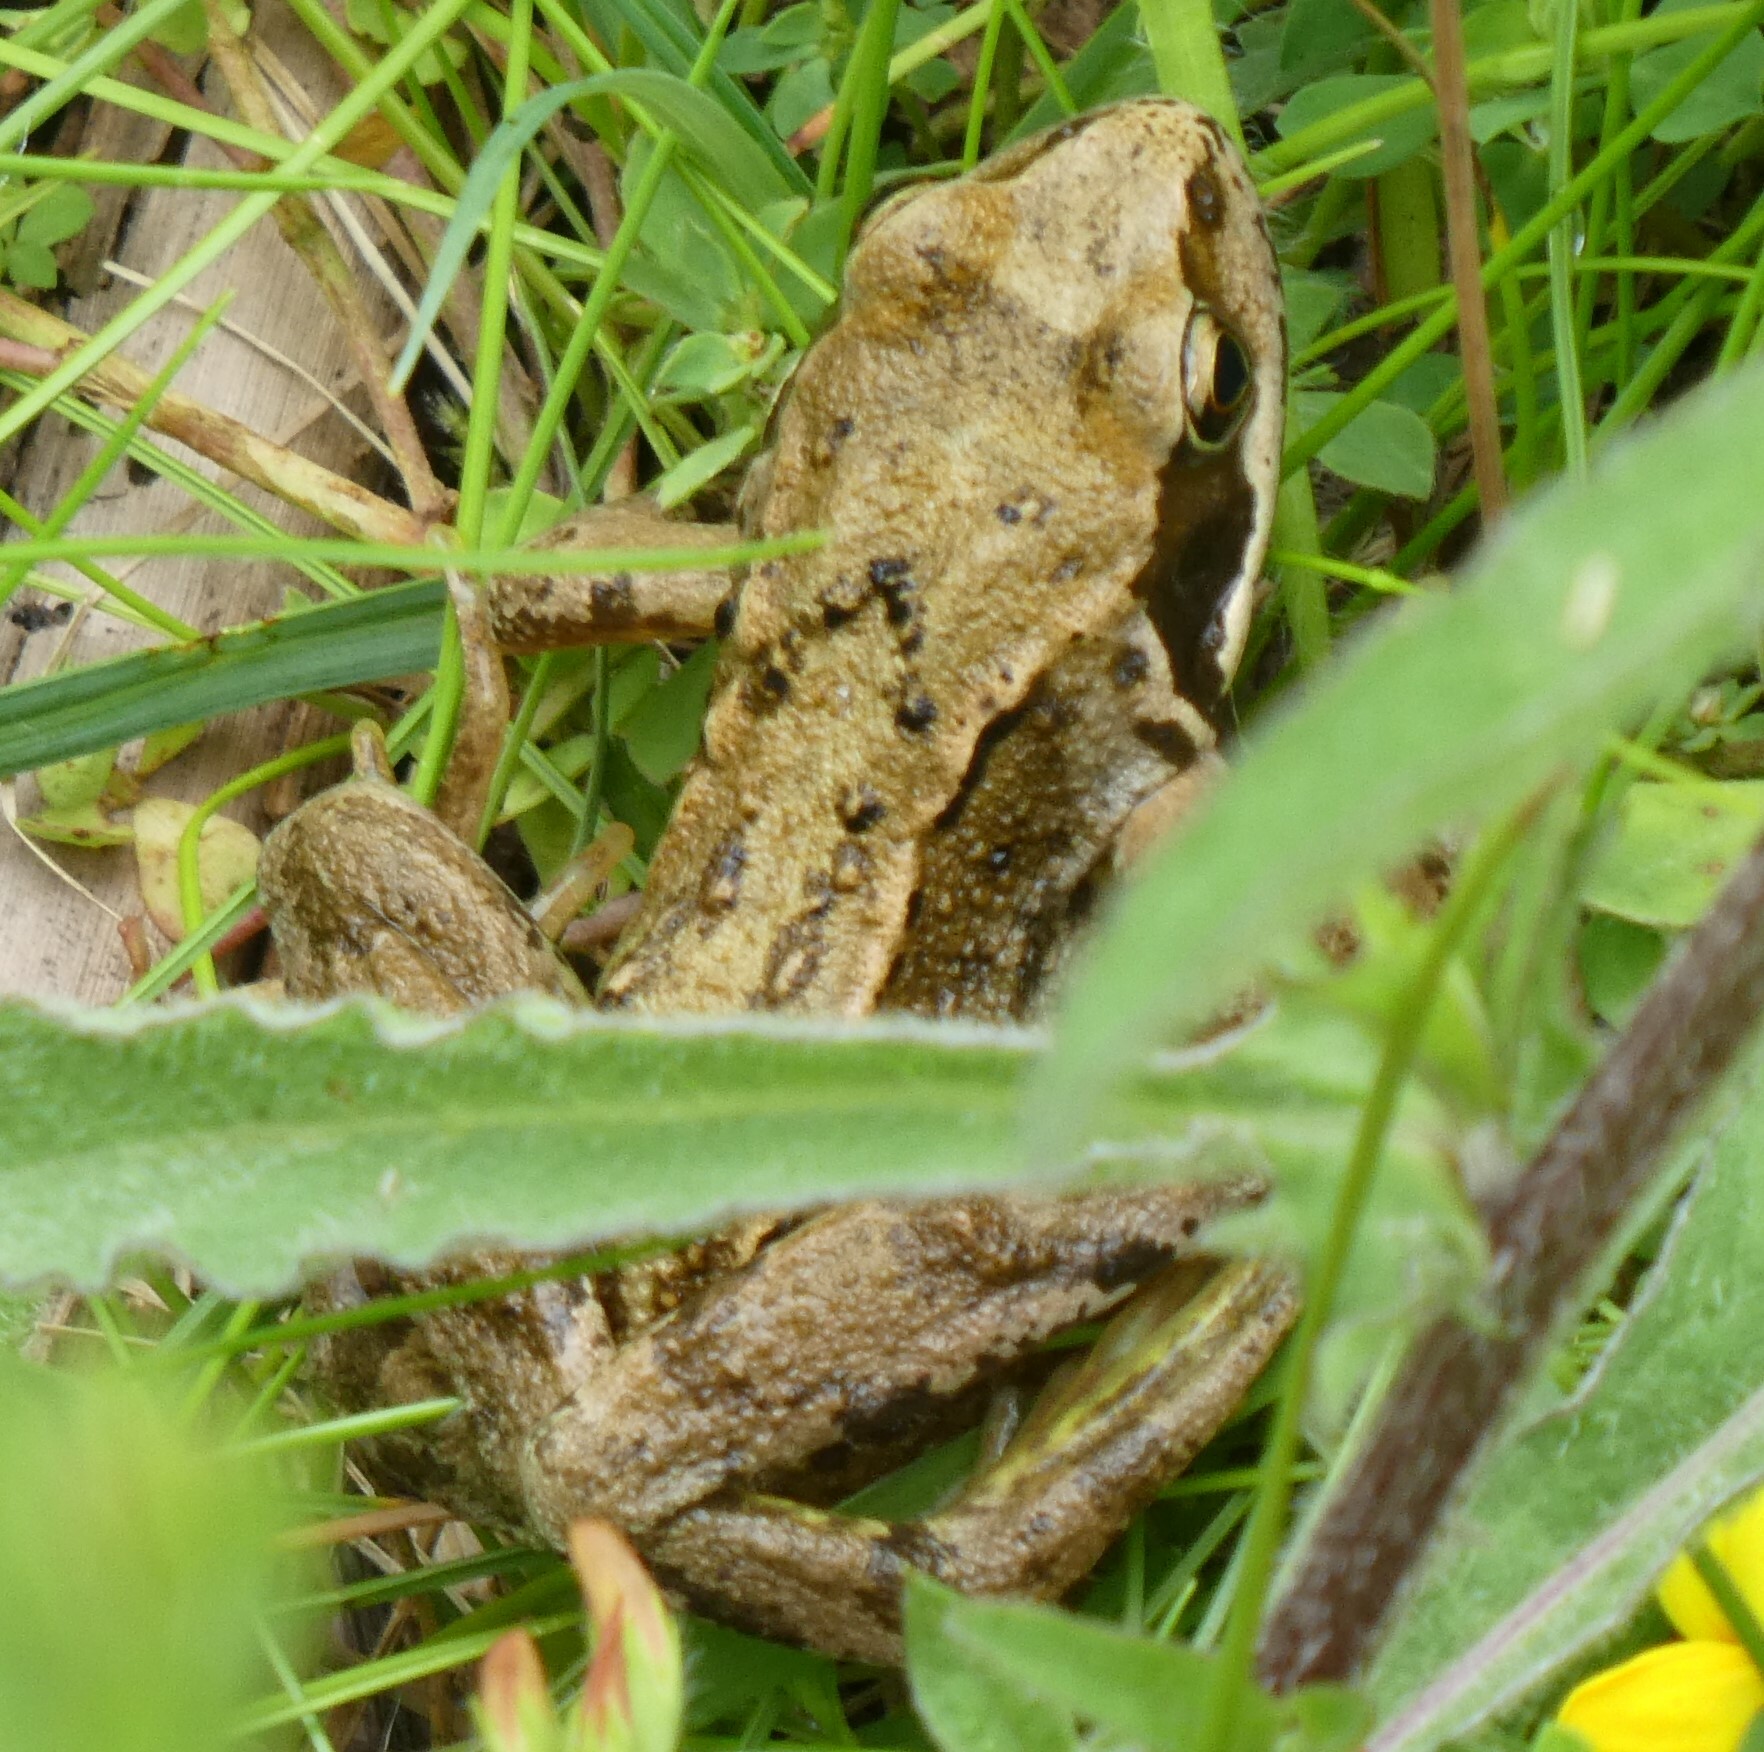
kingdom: Animalia
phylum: Chordata
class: Amphibia
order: Anura
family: Ranidae
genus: Rana
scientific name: Rana temporaria
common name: Common frog
